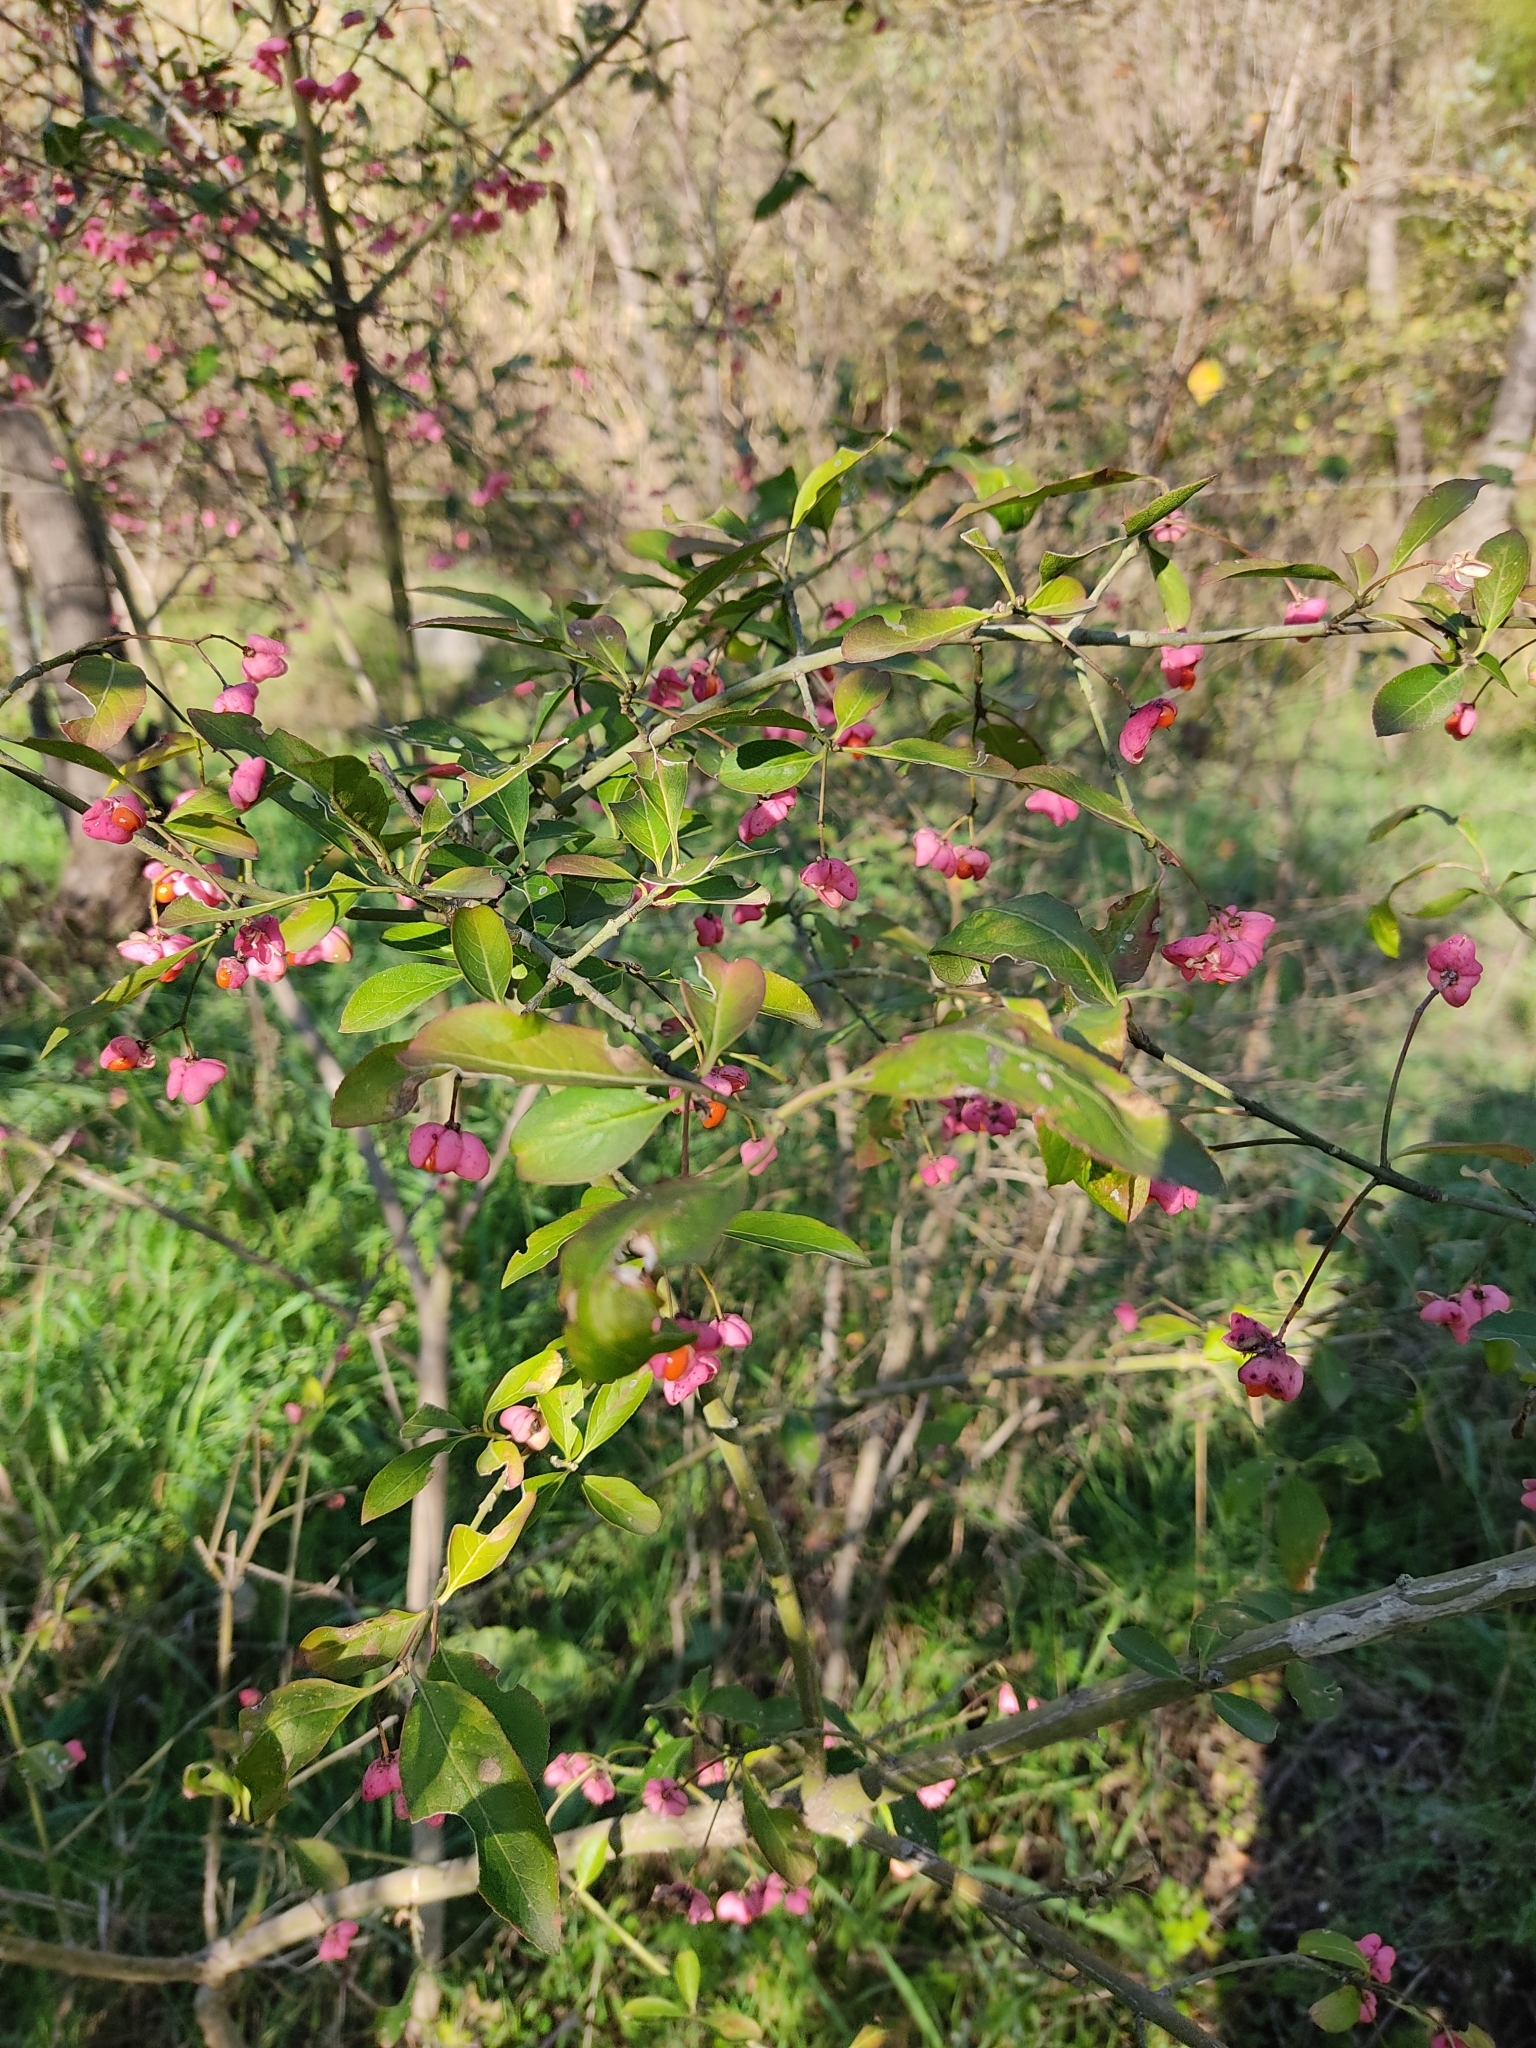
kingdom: Plantae
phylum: Tracheophyta
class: Magnoliopsida
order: Celastrales
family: Celastraceae
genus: Euonymus
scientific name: Euonymus europaeus
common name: Spindle
